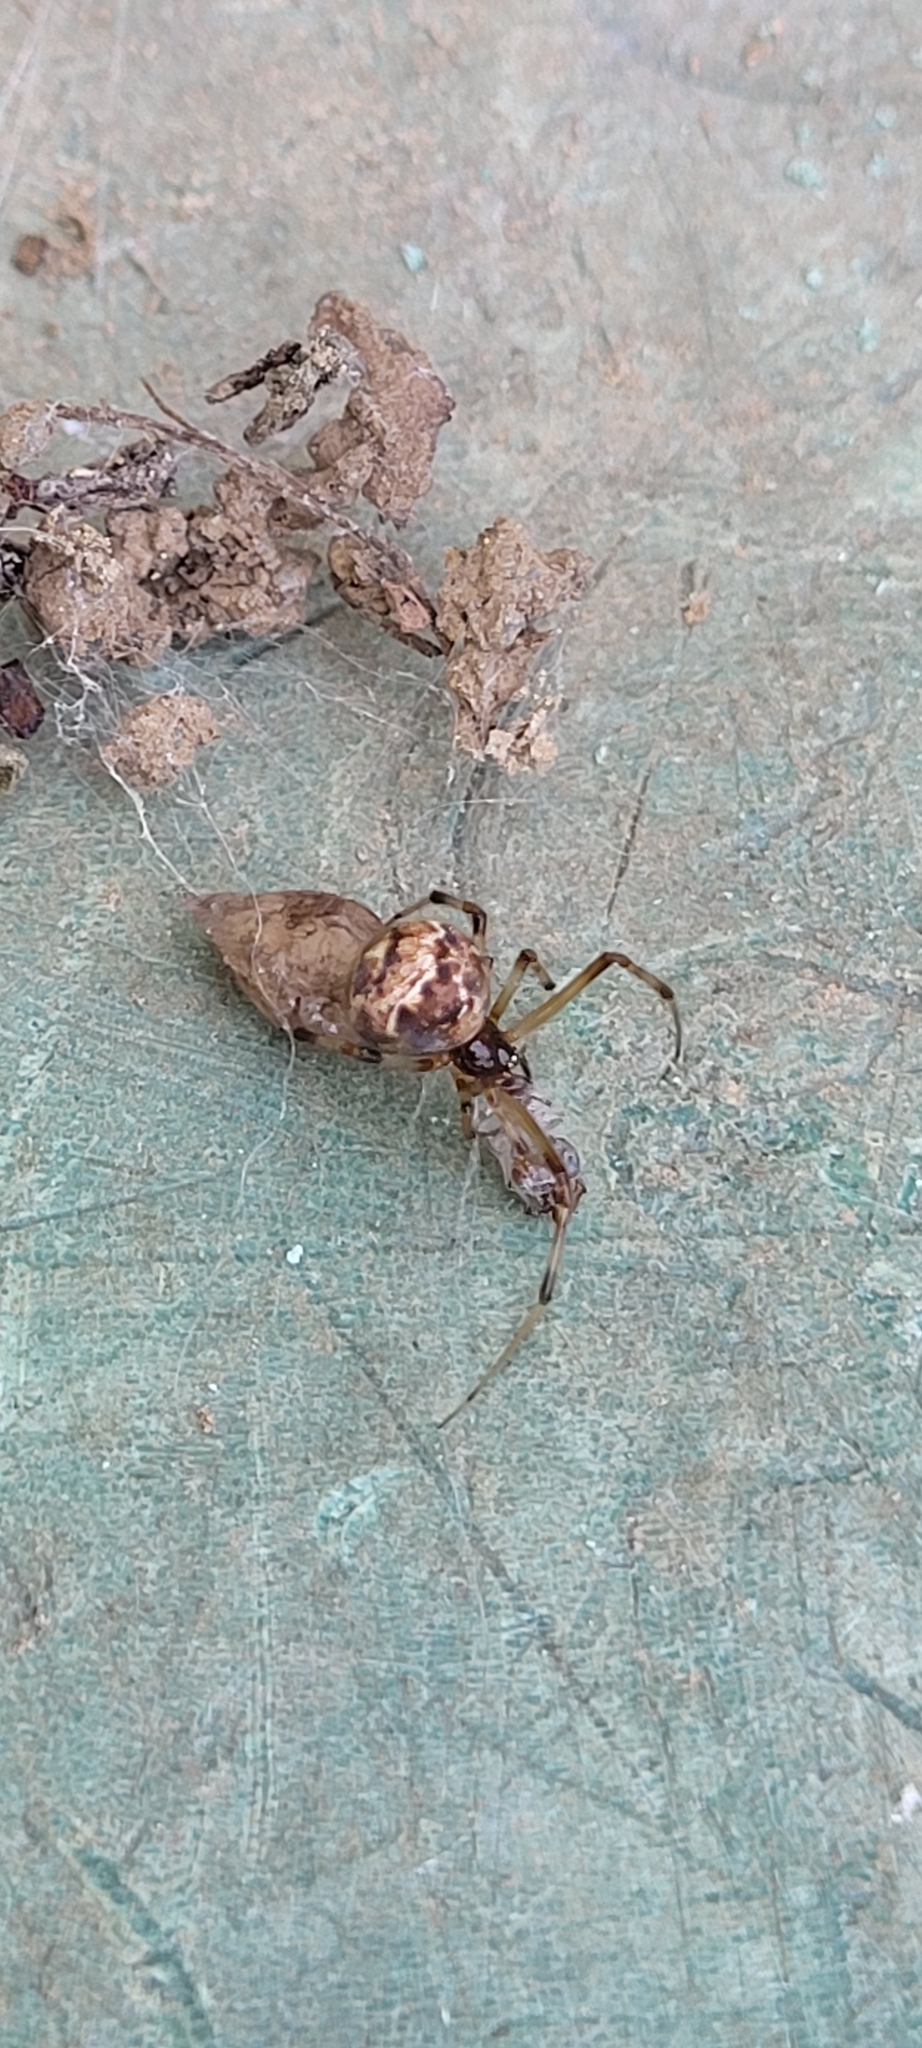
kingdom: Animalia
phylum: Arthropoda
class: Arachnida
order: Araneae
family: Theridiidae
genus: Parasteatoda
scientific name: Parasteatoda tepidariorum
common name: Common house spider
